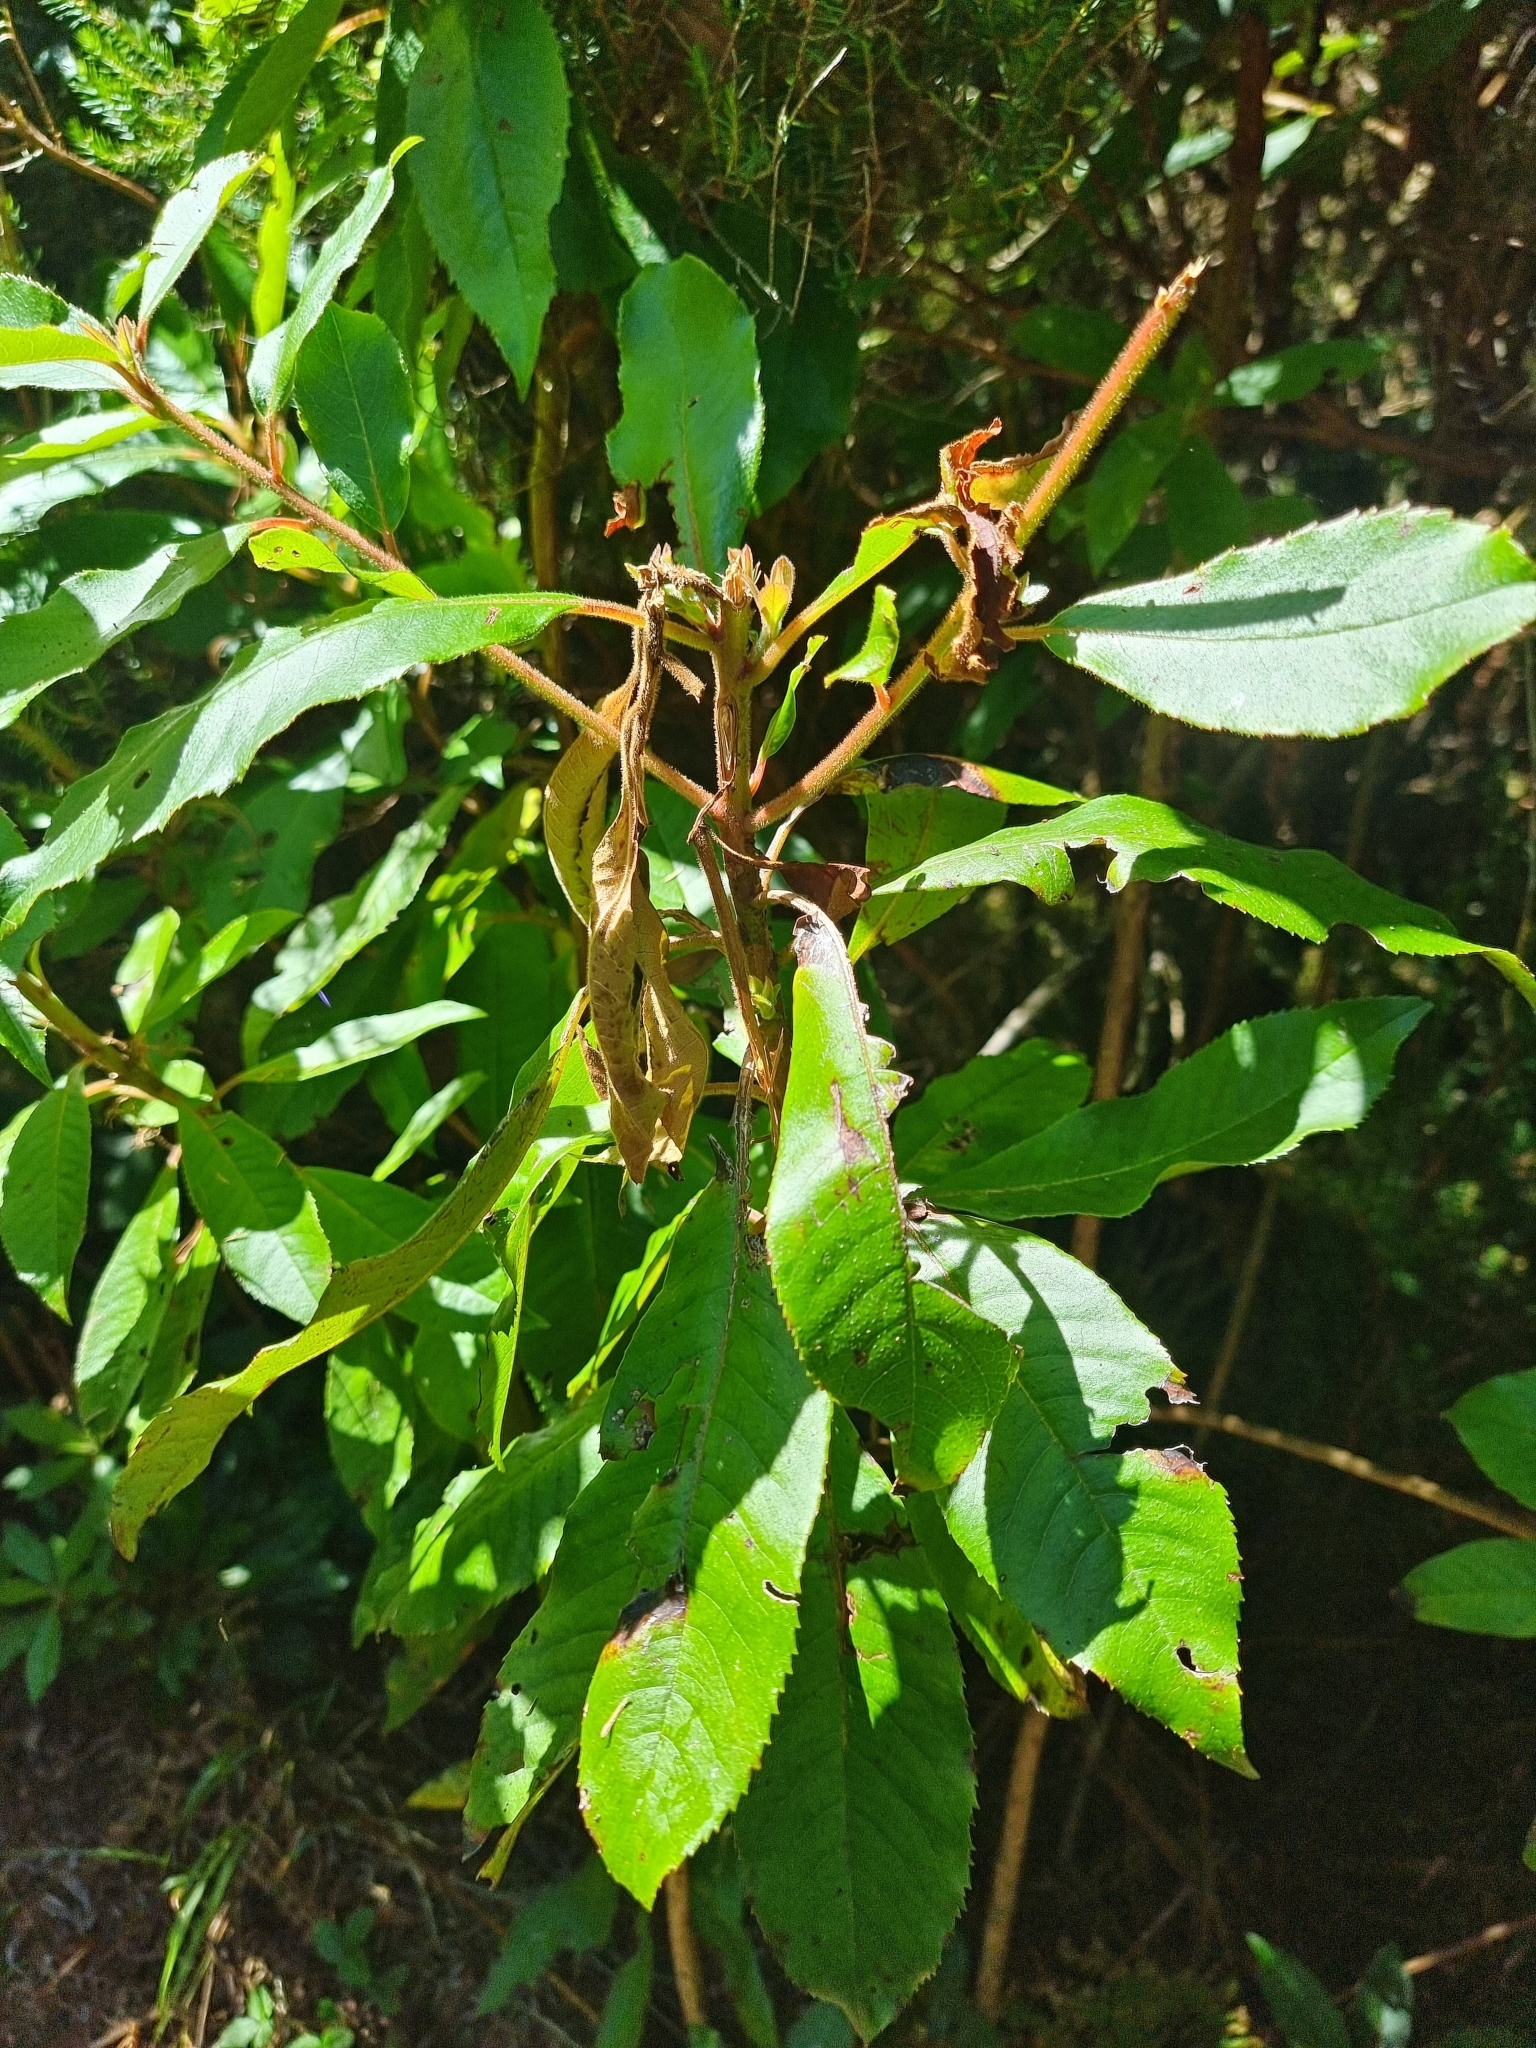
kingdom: Plantae
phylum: Tracheophyta
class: Magnoliopsida
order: Ericales
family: Clethraceae
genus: Clethra
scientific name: Clethra arborea
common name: Lily-of-the-valley-tree
